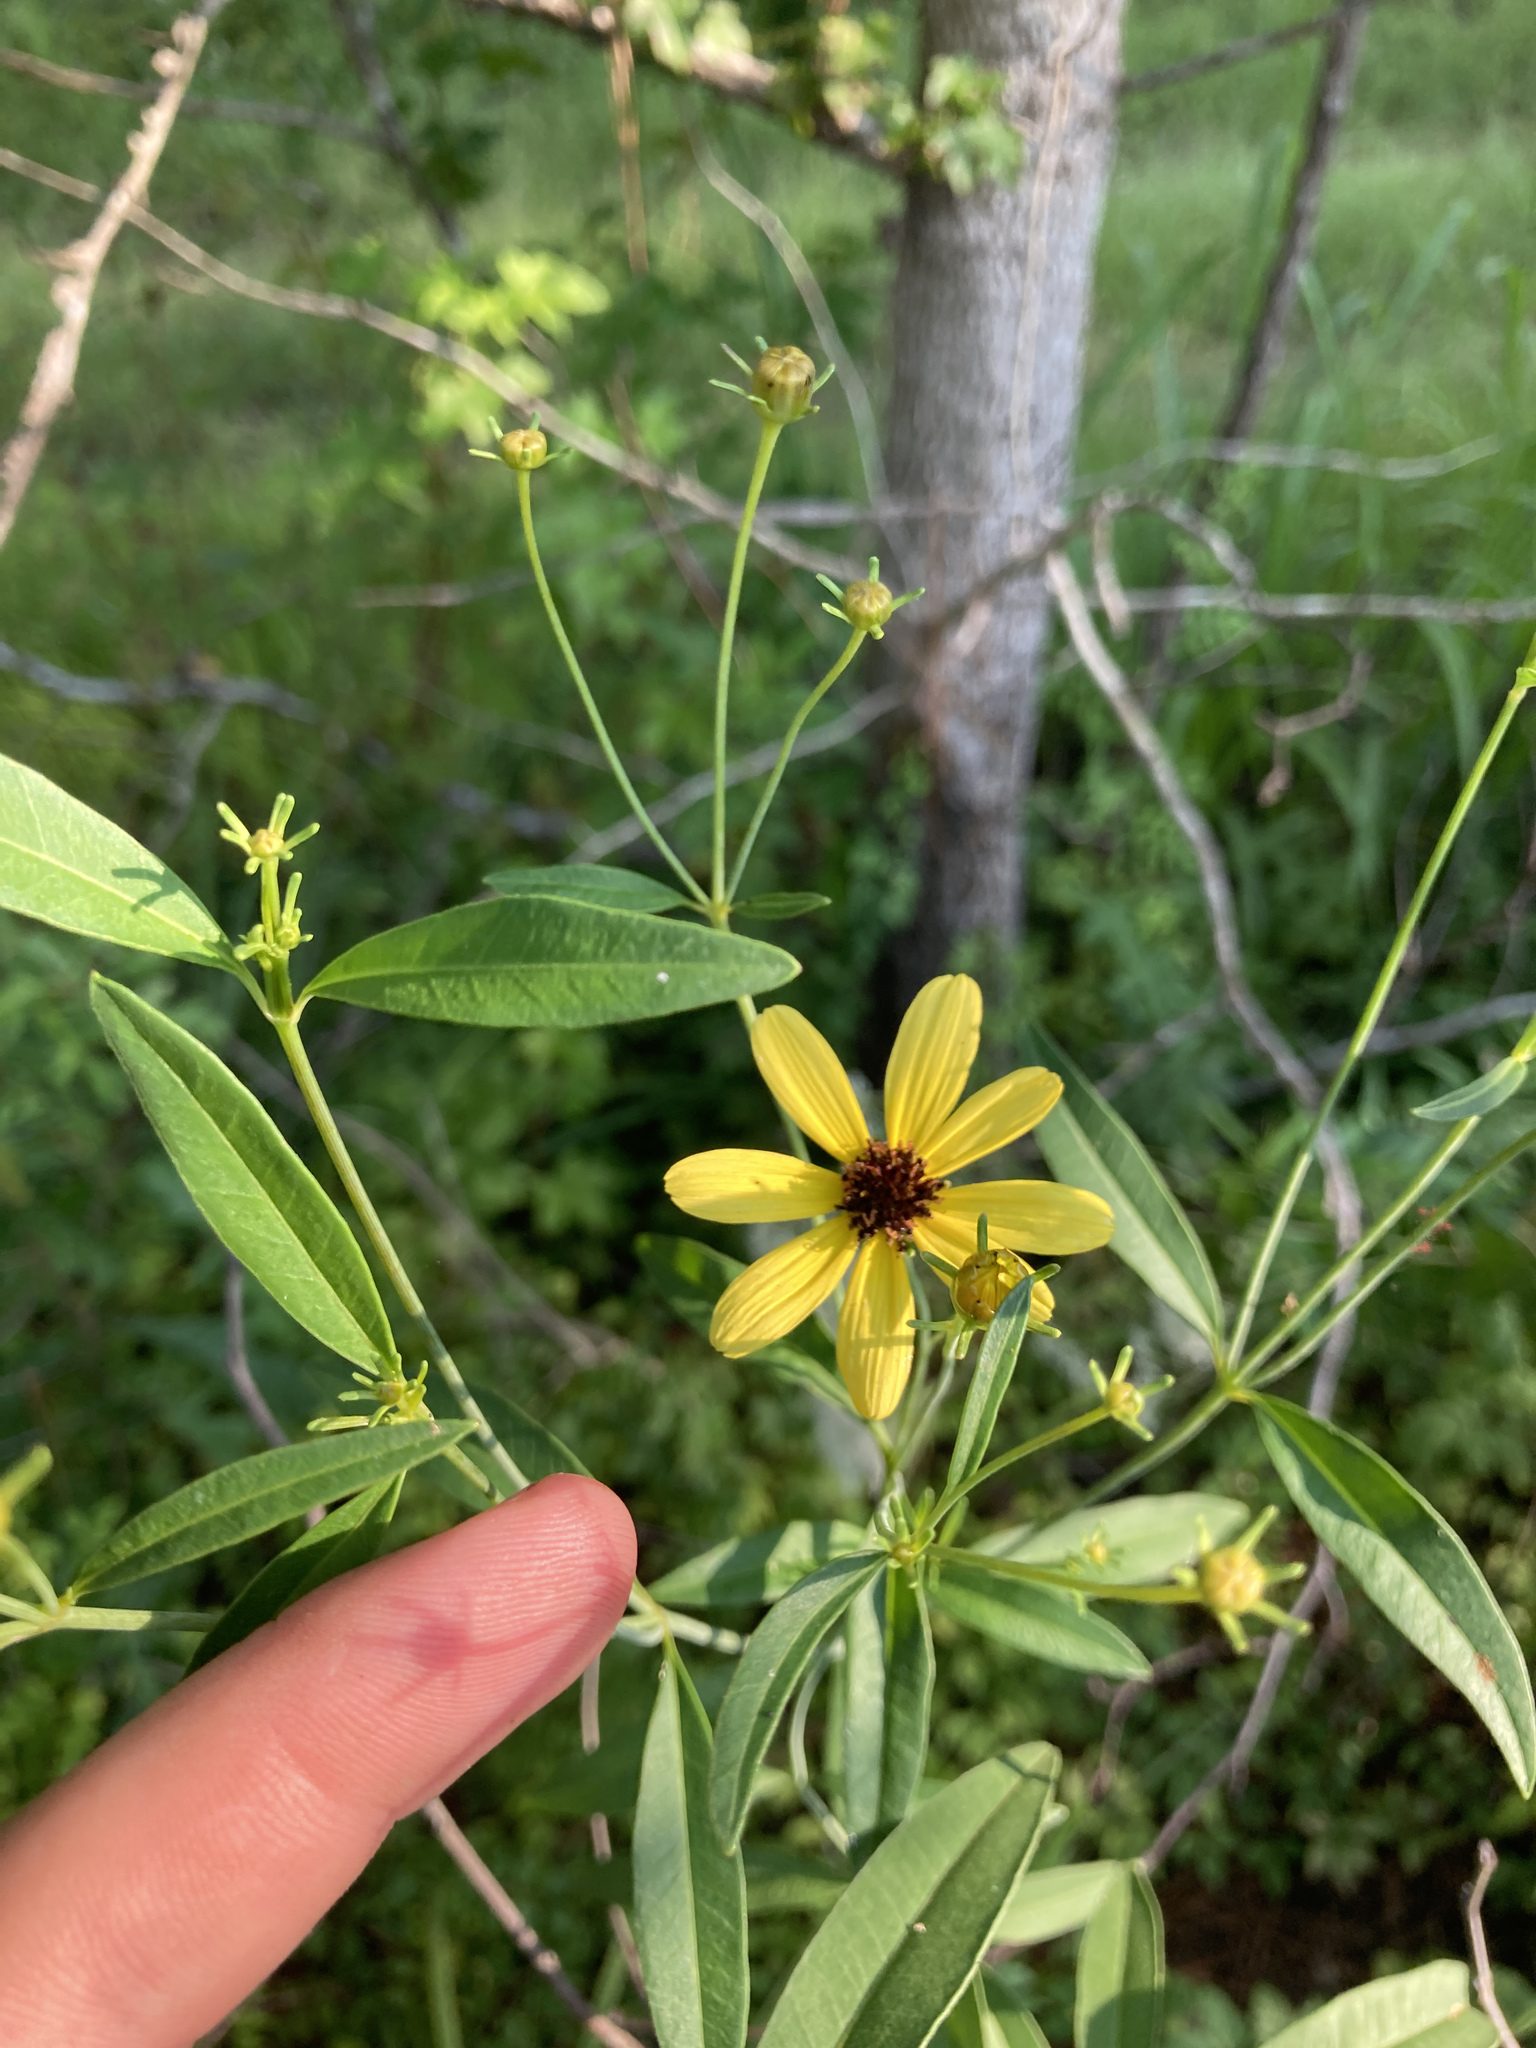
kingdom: Plantae
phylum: Tracheophyta
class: Magnoliopsida
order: Asterales
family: Asteraceae
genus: Coreopsis
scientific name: Coreopsis tripteris
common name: Tall coreopsis
